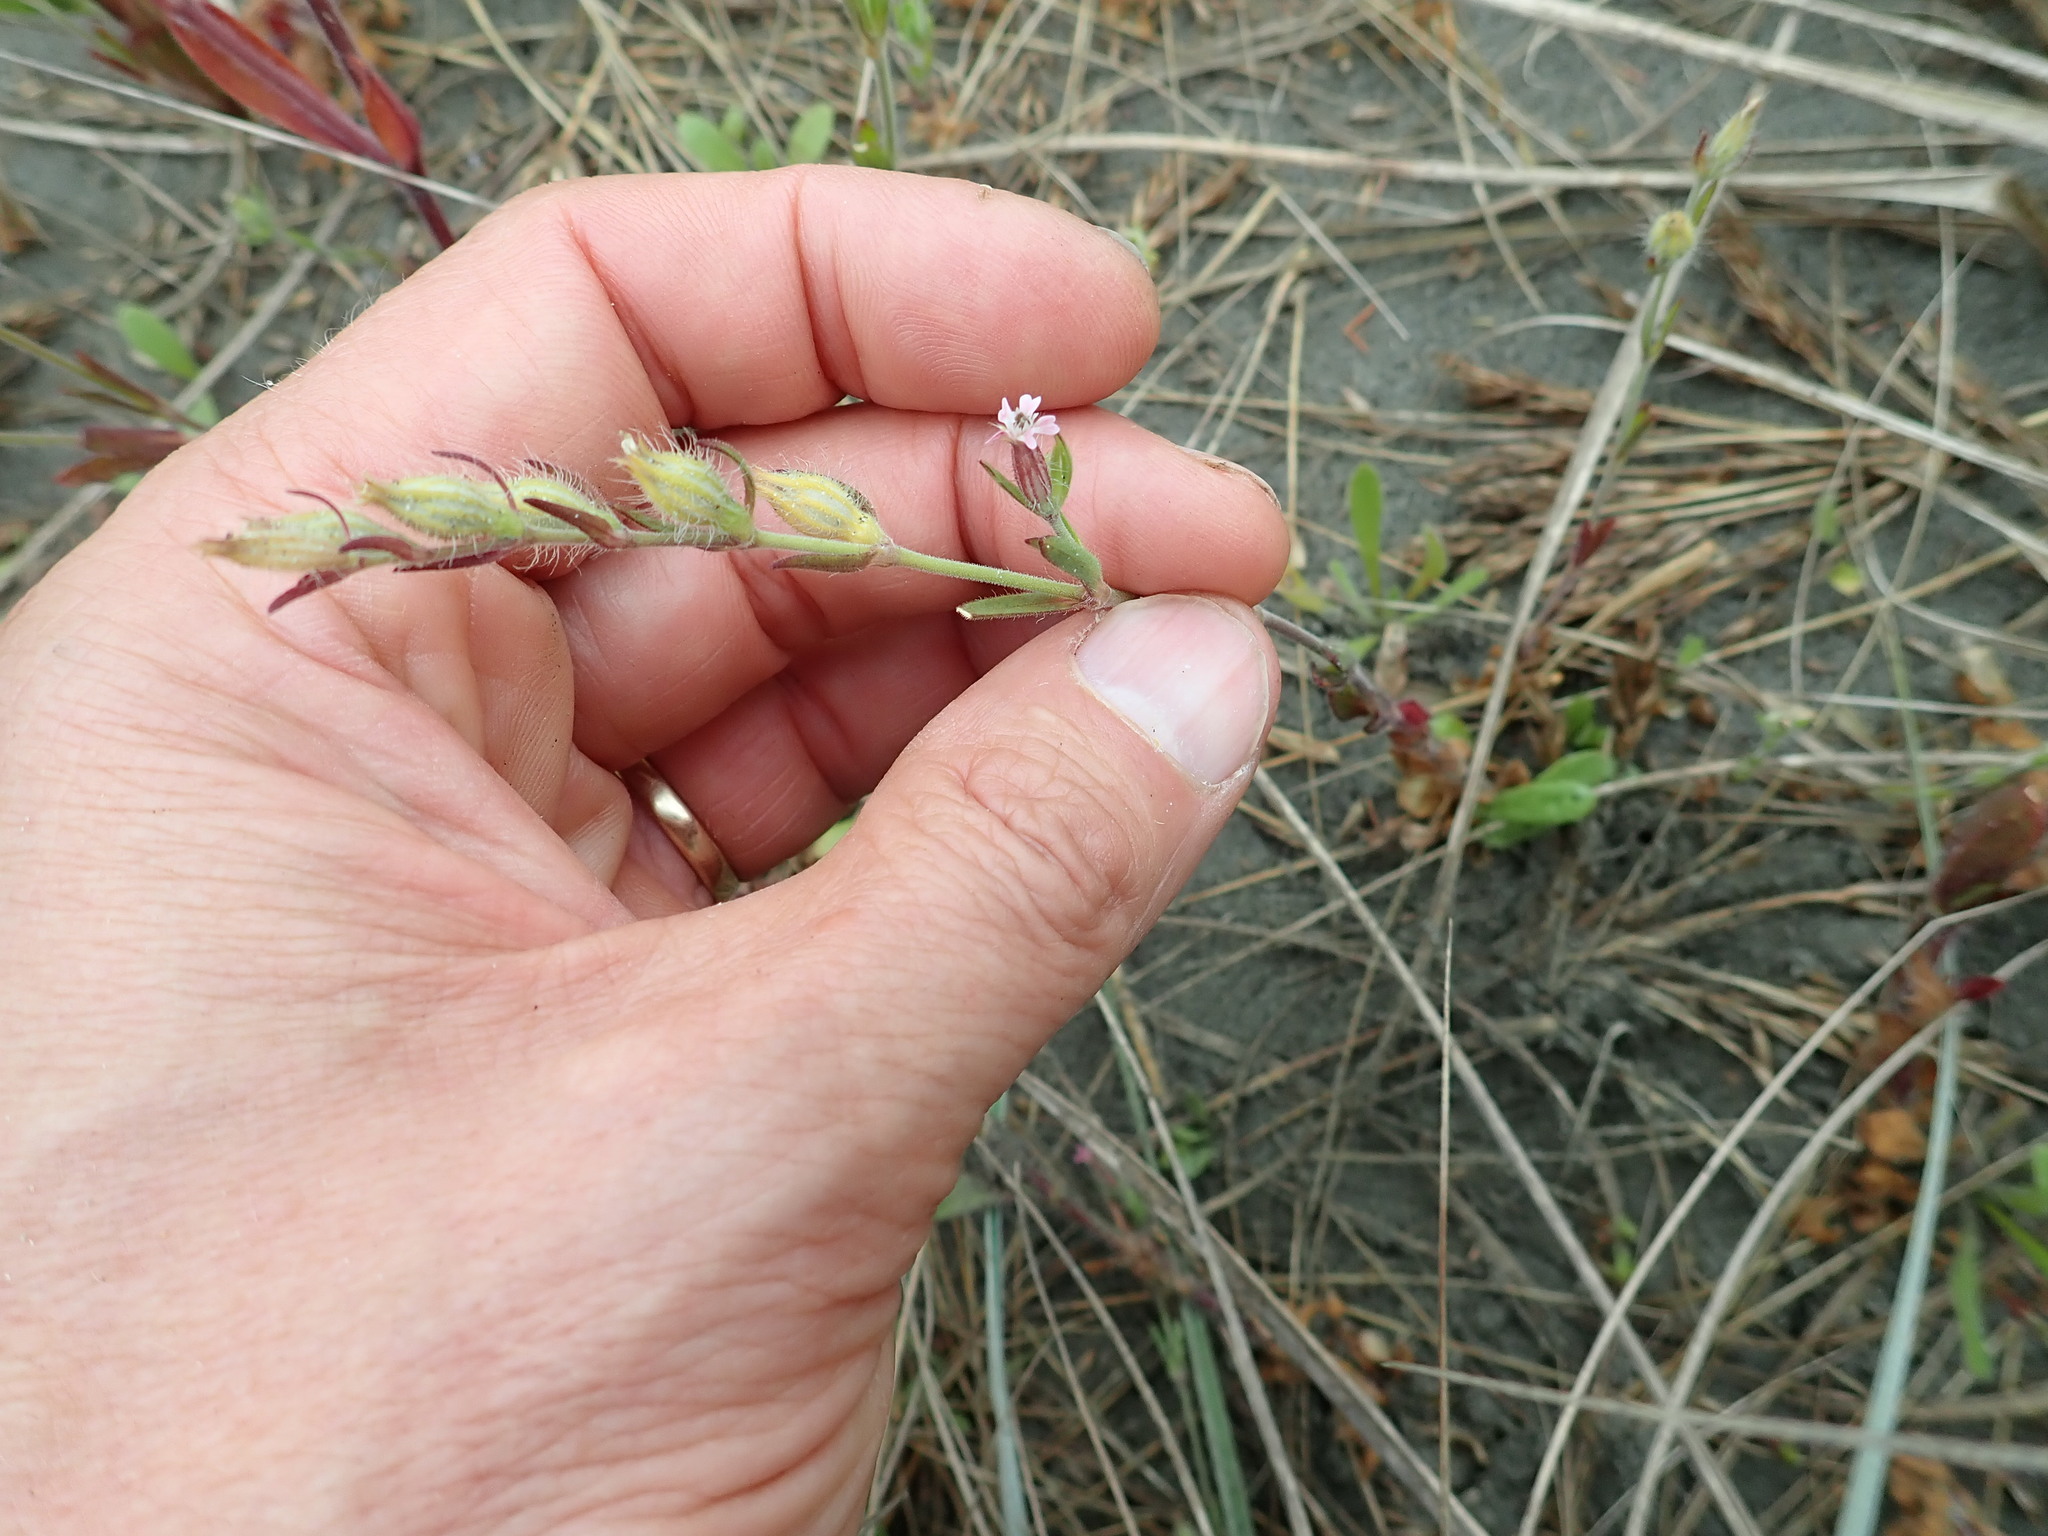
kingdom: Plantae
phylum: Tracheophyta
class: Magnoliopsida
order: Caryophyllales
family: Caryophyllaceae
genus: Silene
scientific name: Silene gallica
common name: Small-flowered catchfly
